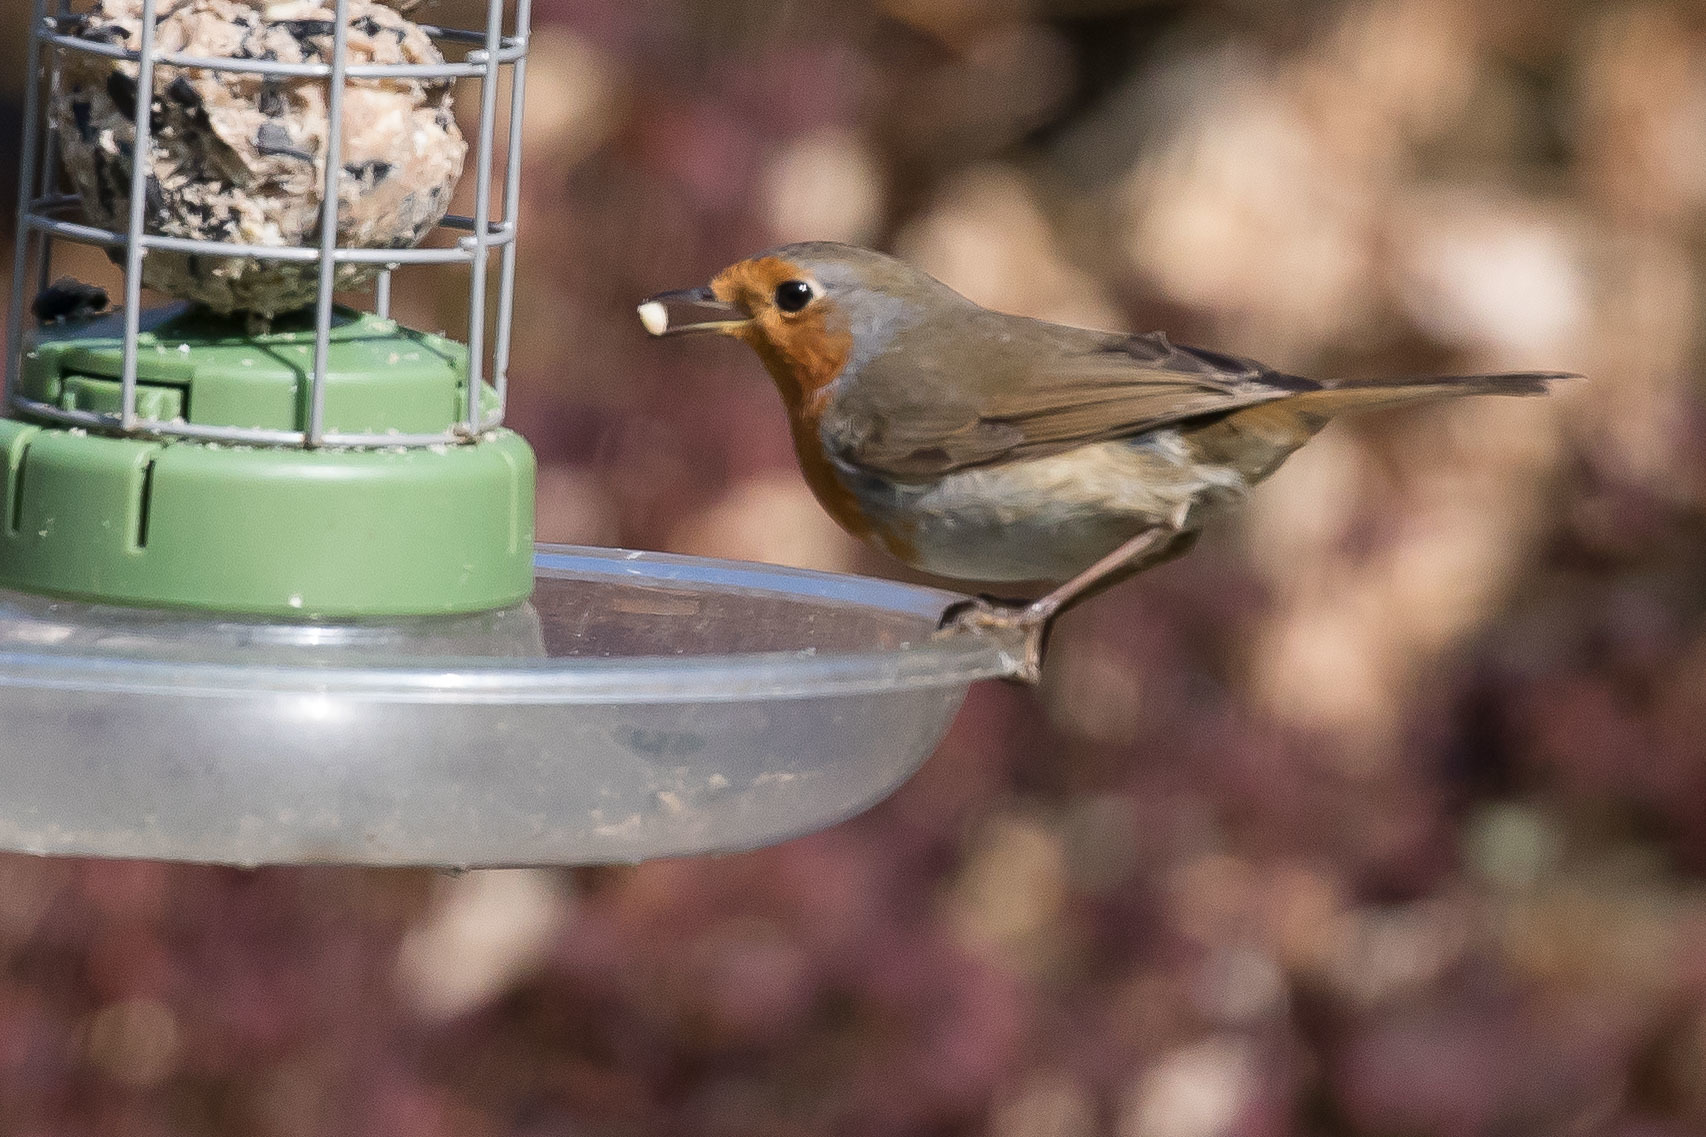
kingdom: Animalia
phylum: Chordata
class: Aves
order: Passeriformes
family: Muscicapidae
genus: Erithacus
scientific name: Erithacus rubecula
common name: European robin
